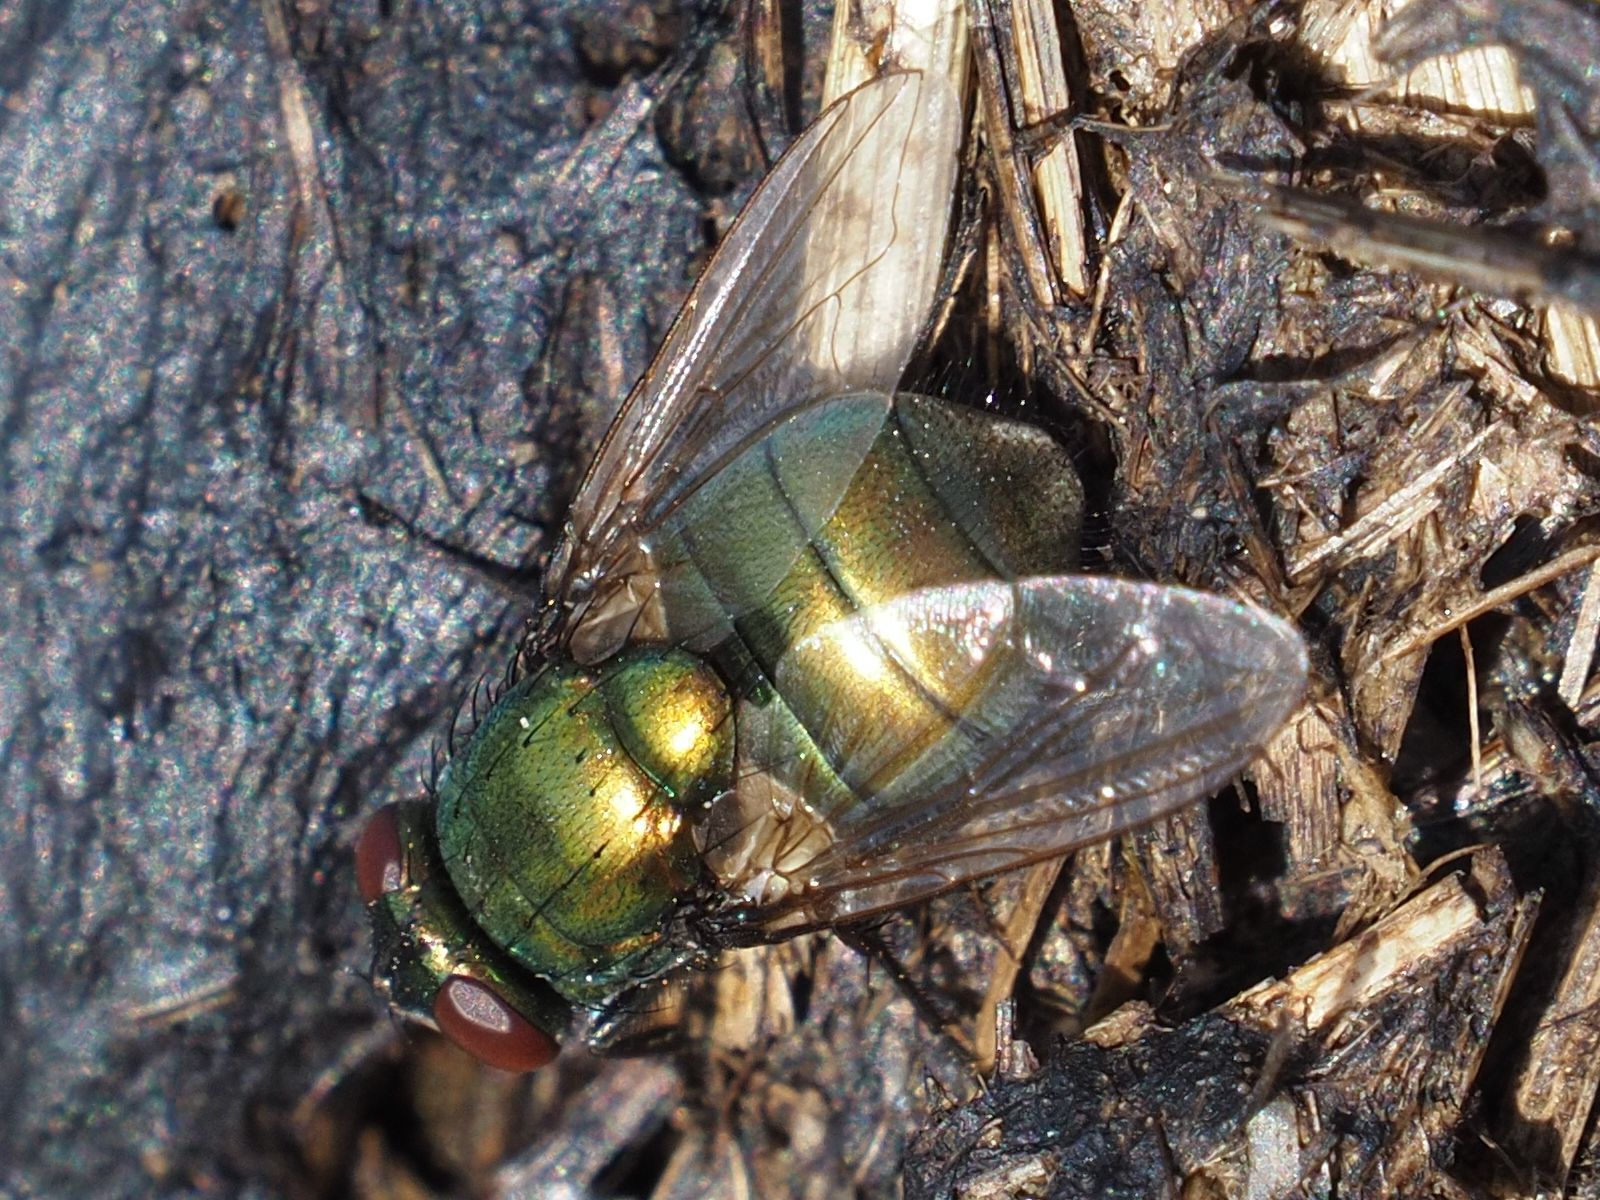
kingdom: Animalia
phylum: Arthropoda
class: Insecta
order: Diptera
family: Muscidae
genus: Neomyia
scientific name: Neomyia cornicina
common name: House fly
